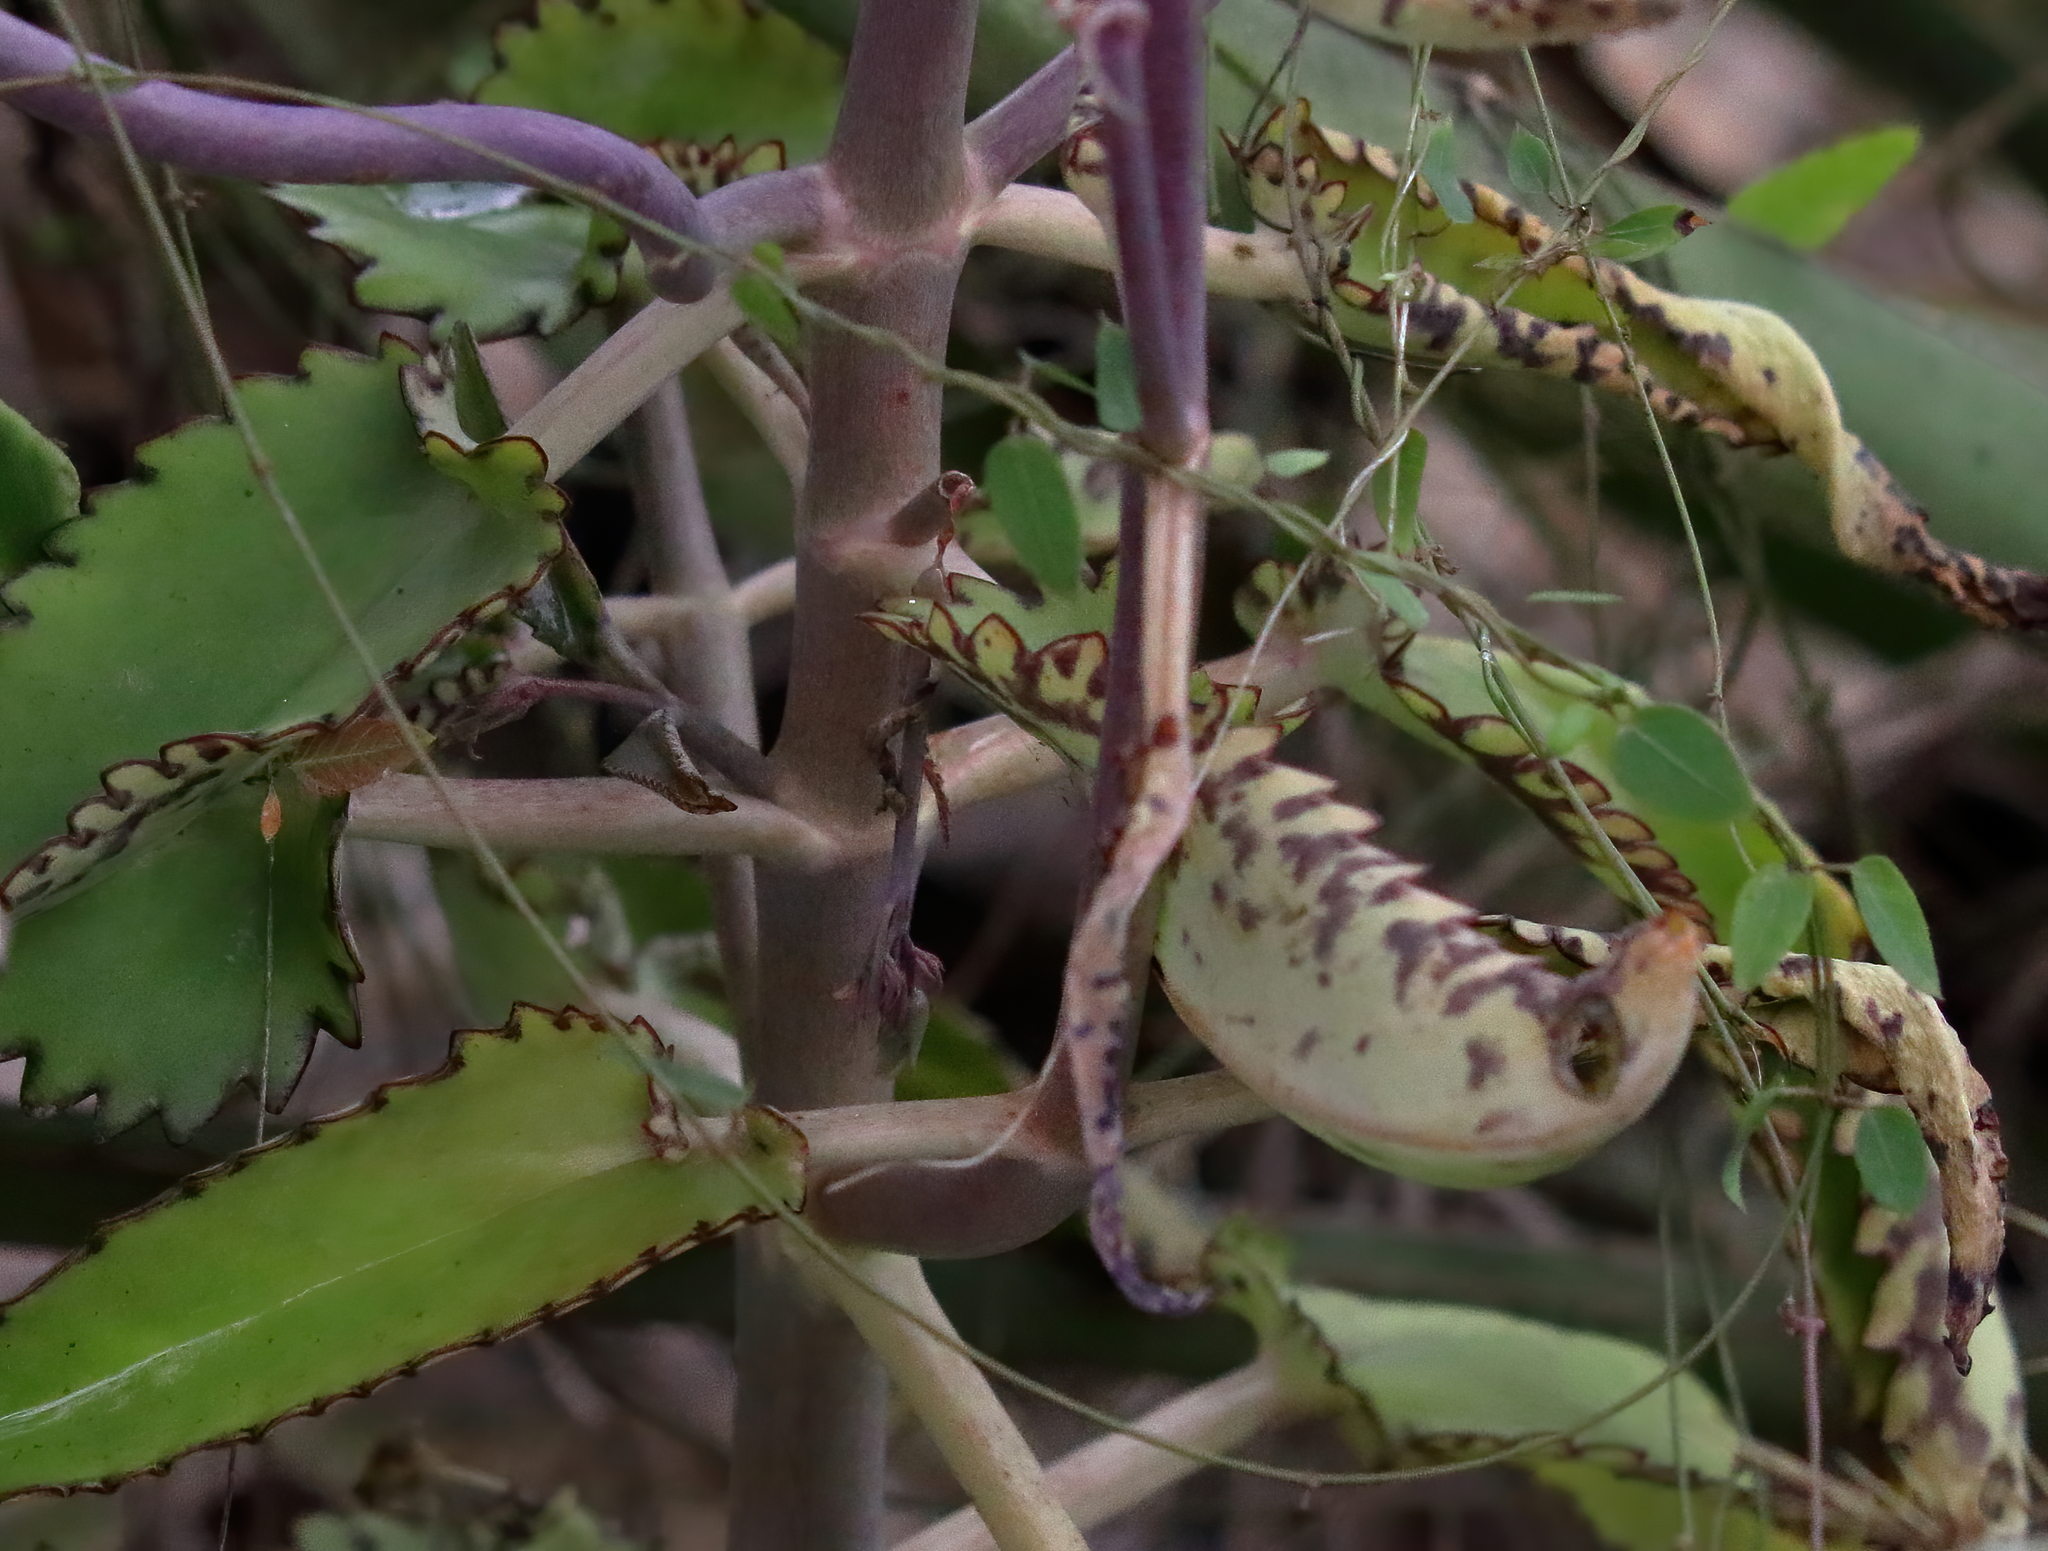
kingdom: Plantae
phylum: Tracheophyta
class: Magnoliopsida
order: Saxifragales
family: Crassulaceae
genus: Kalanchoe
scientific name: Kalanchoe daigremontiana
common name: Devil's backbone
